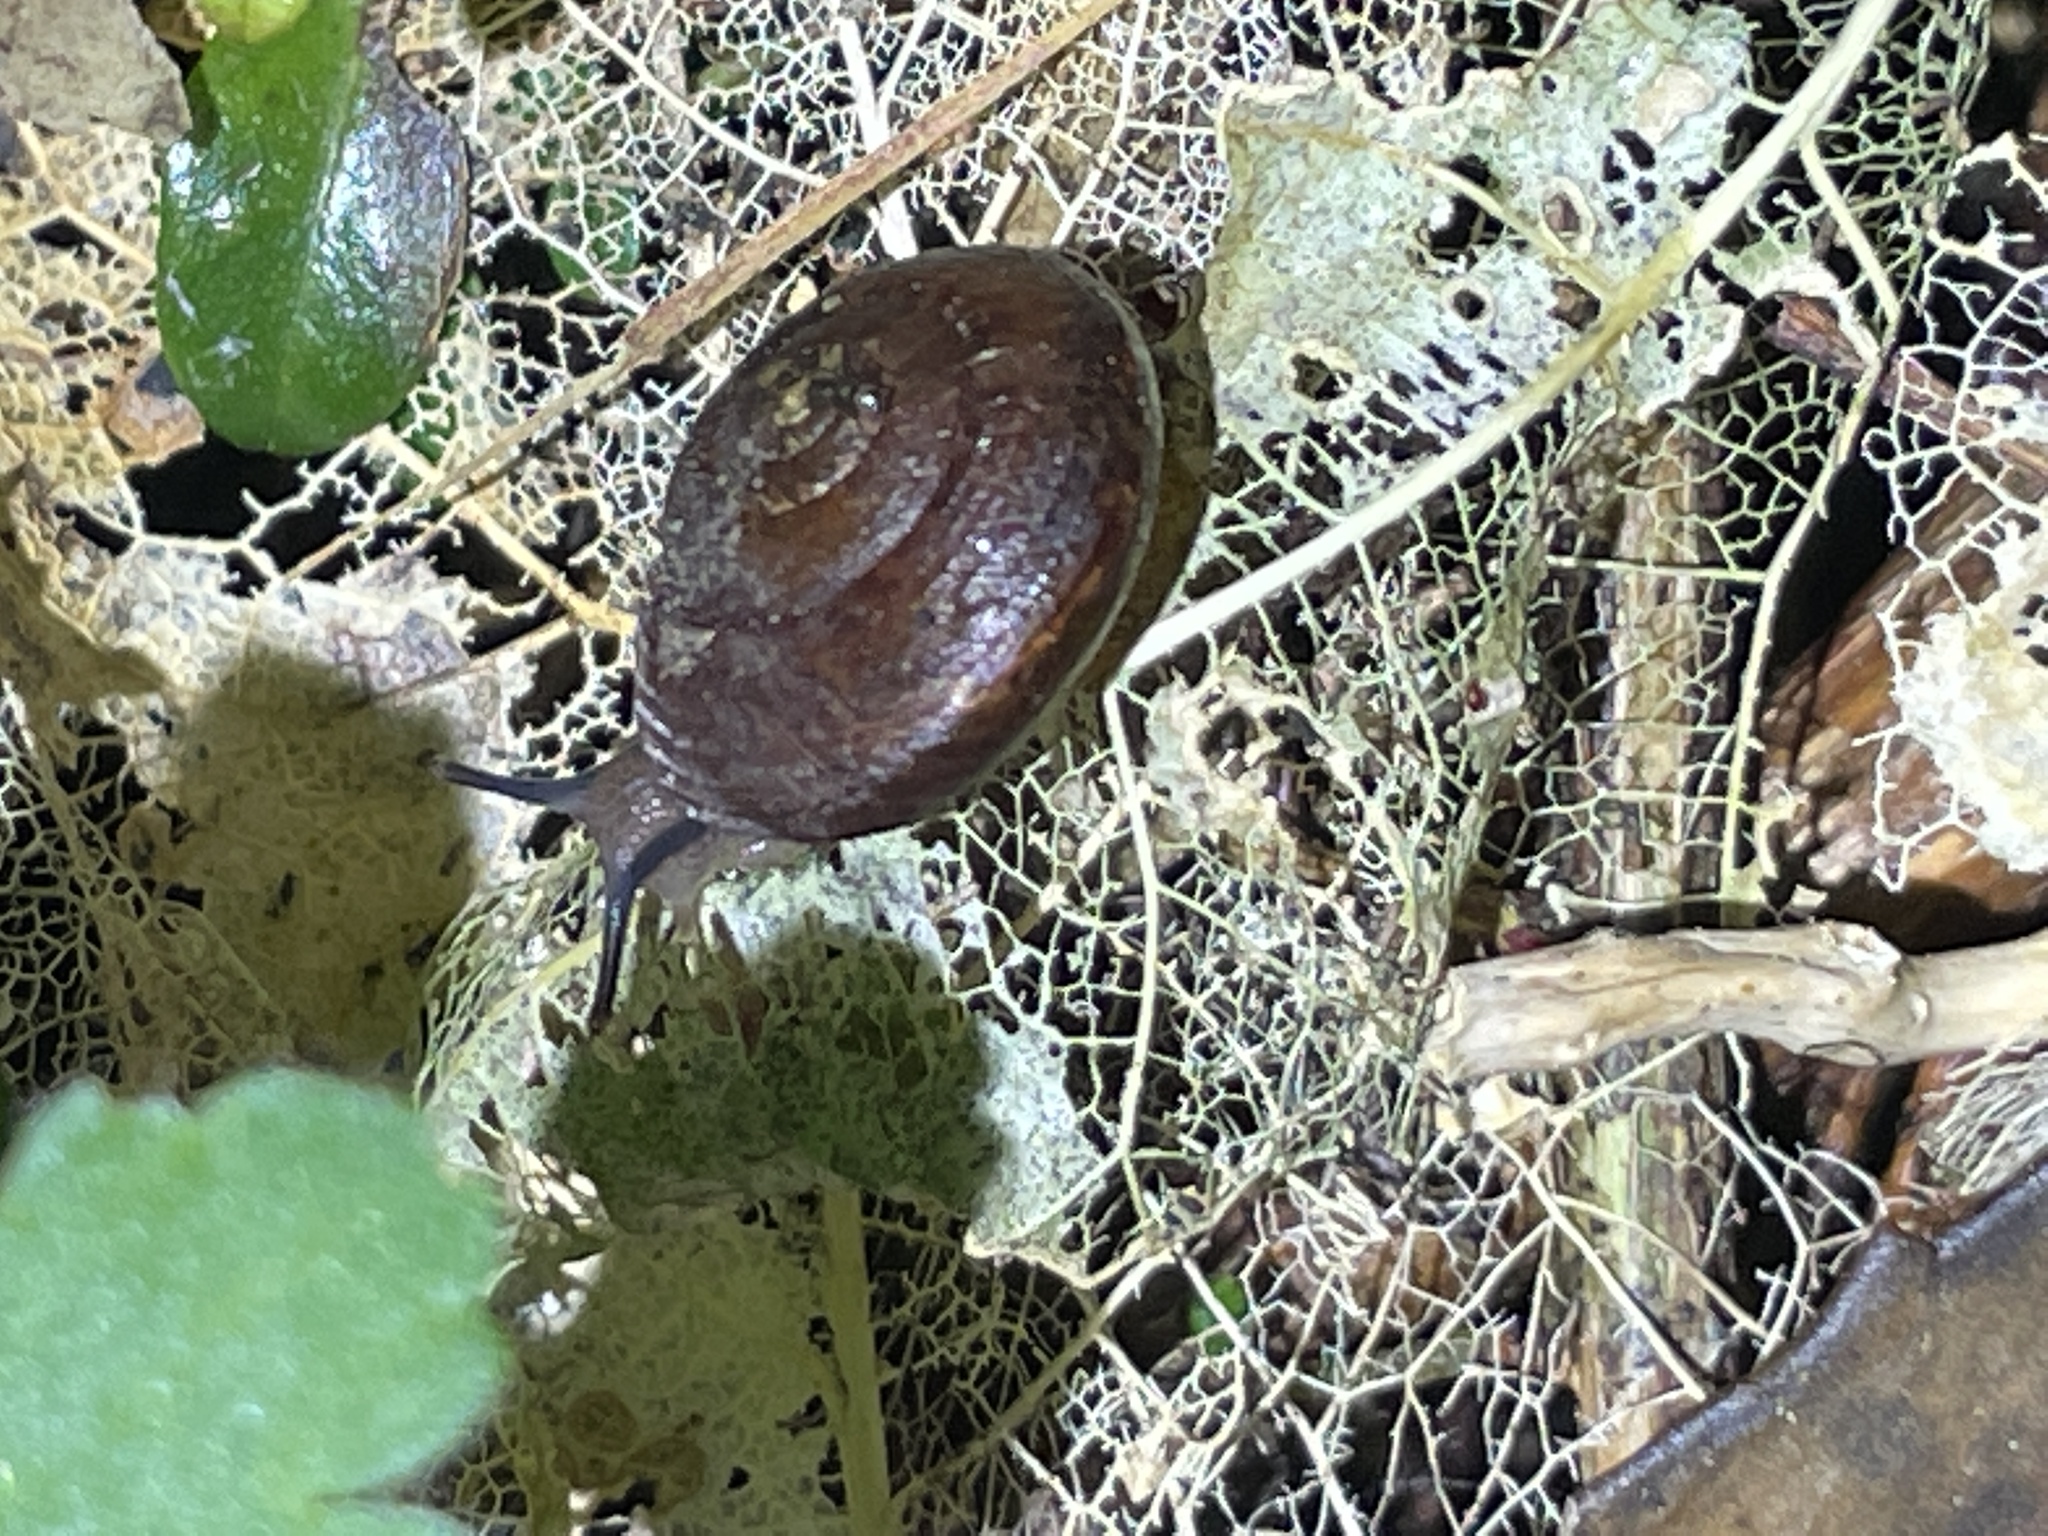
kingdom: Animalia
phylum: Mollusca
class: Gastropoda
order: Stylommatophora
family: Charopidae
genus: Thalassohelix
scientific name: Thalassohelix igniflua
